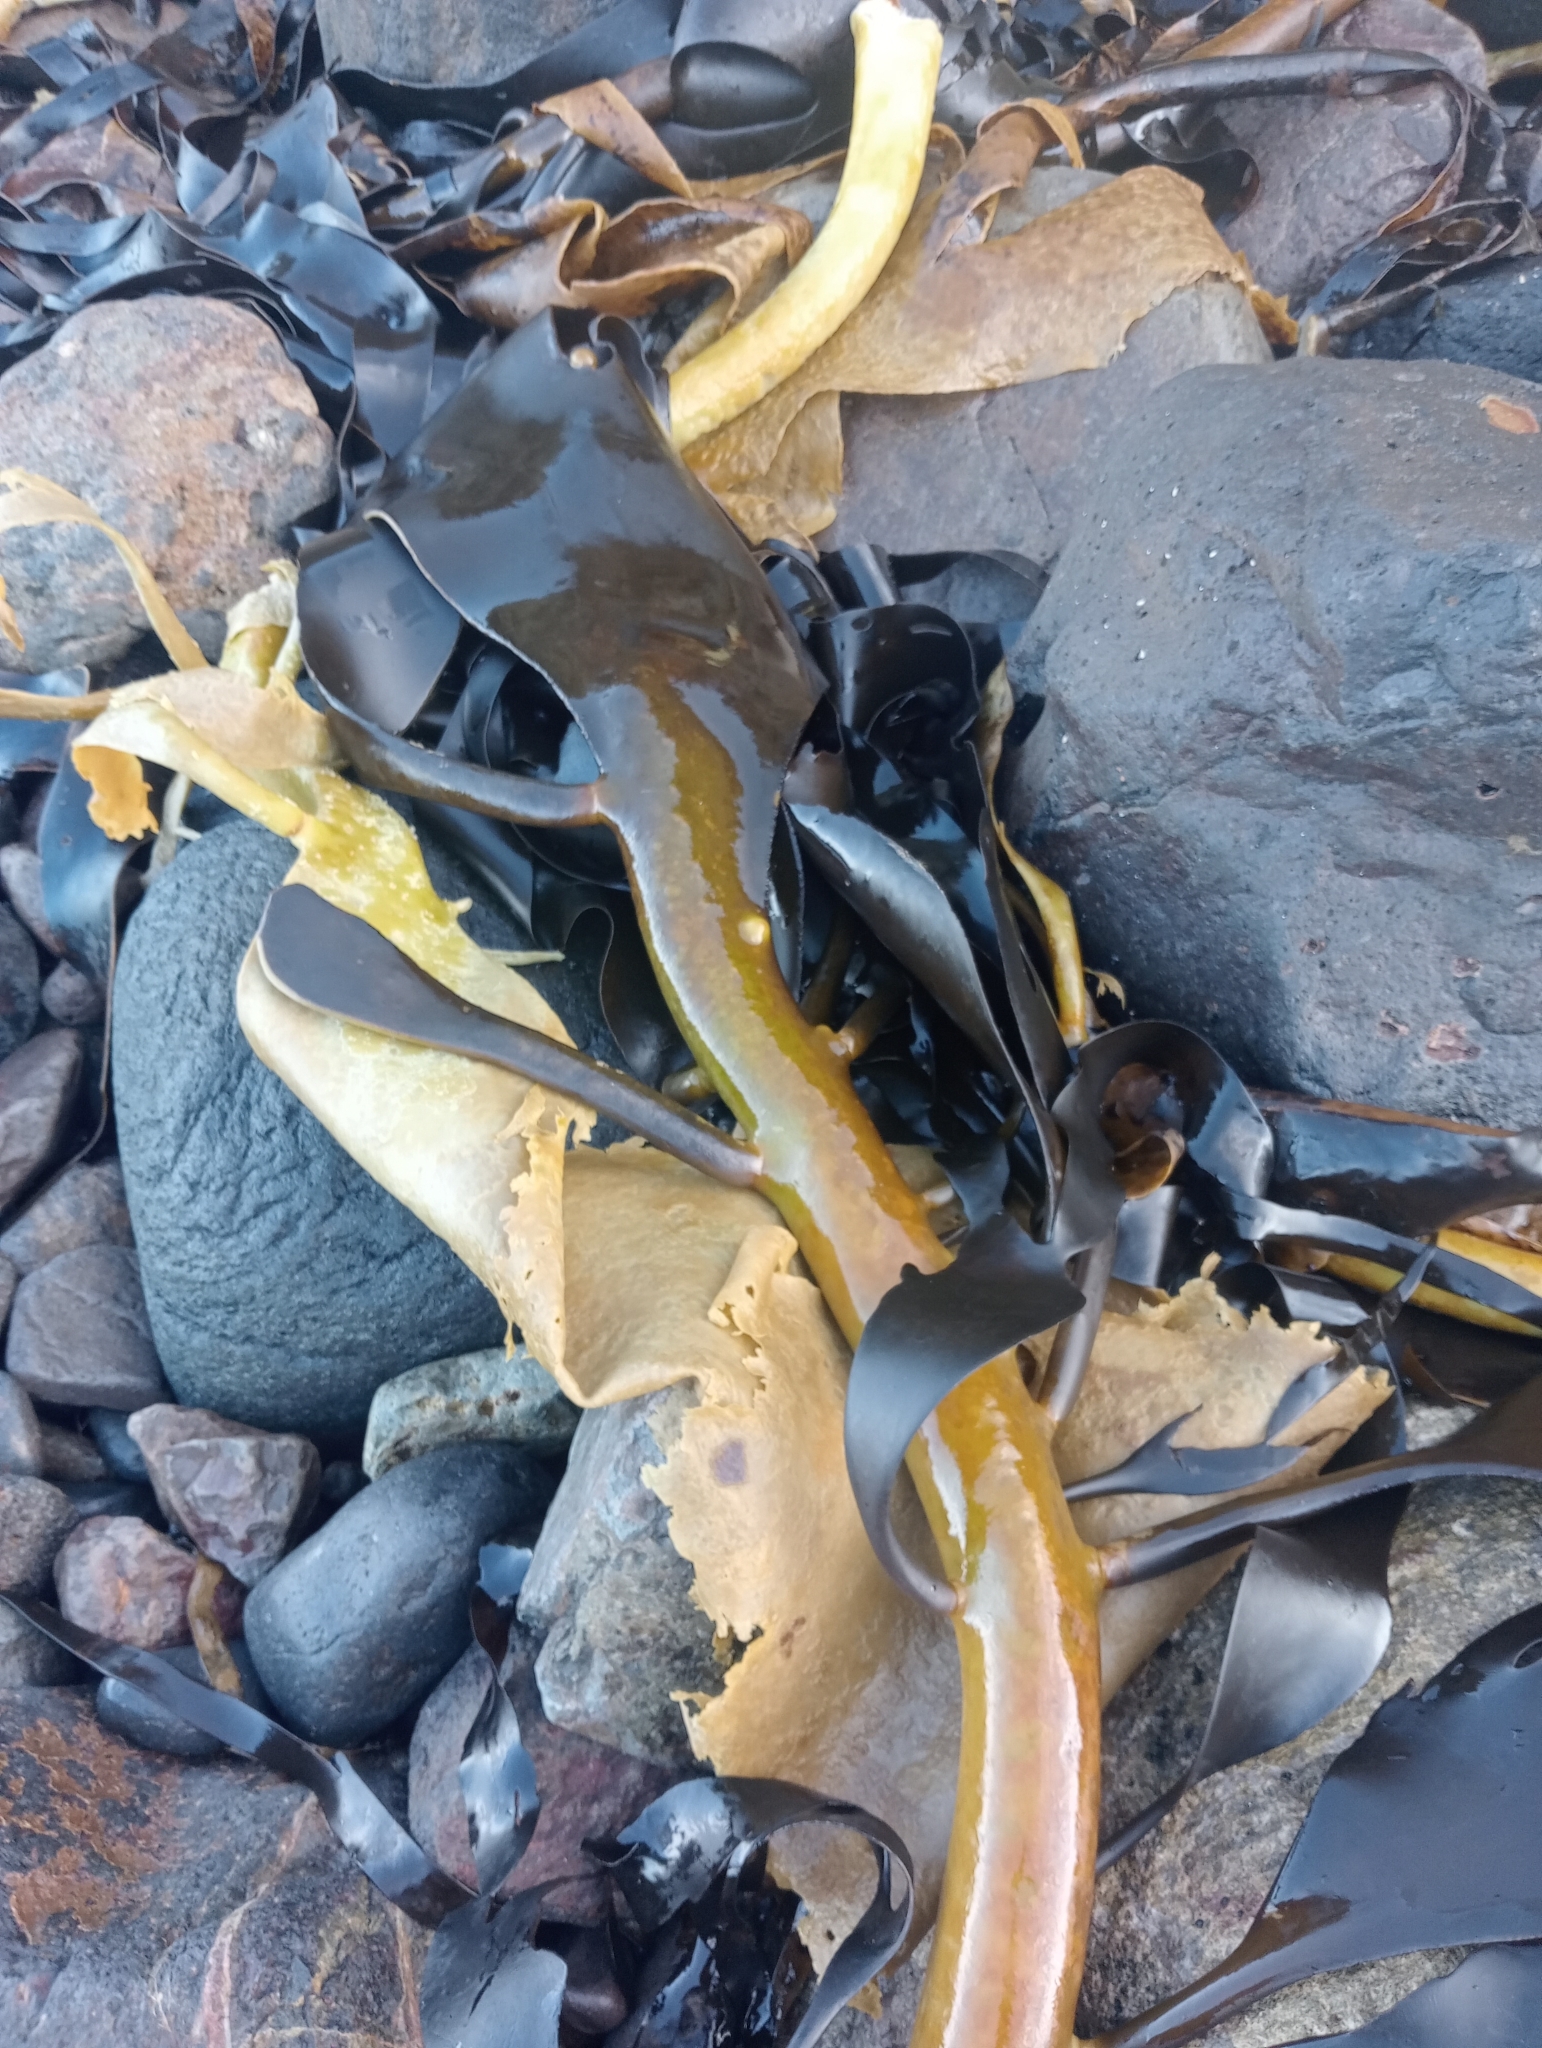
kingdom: Chromista
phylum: Ochrophyta
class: Phaeophyceae
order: Fucales
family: Durvillaeaceae
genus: Durvillaea
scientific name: Durvillaea willana
